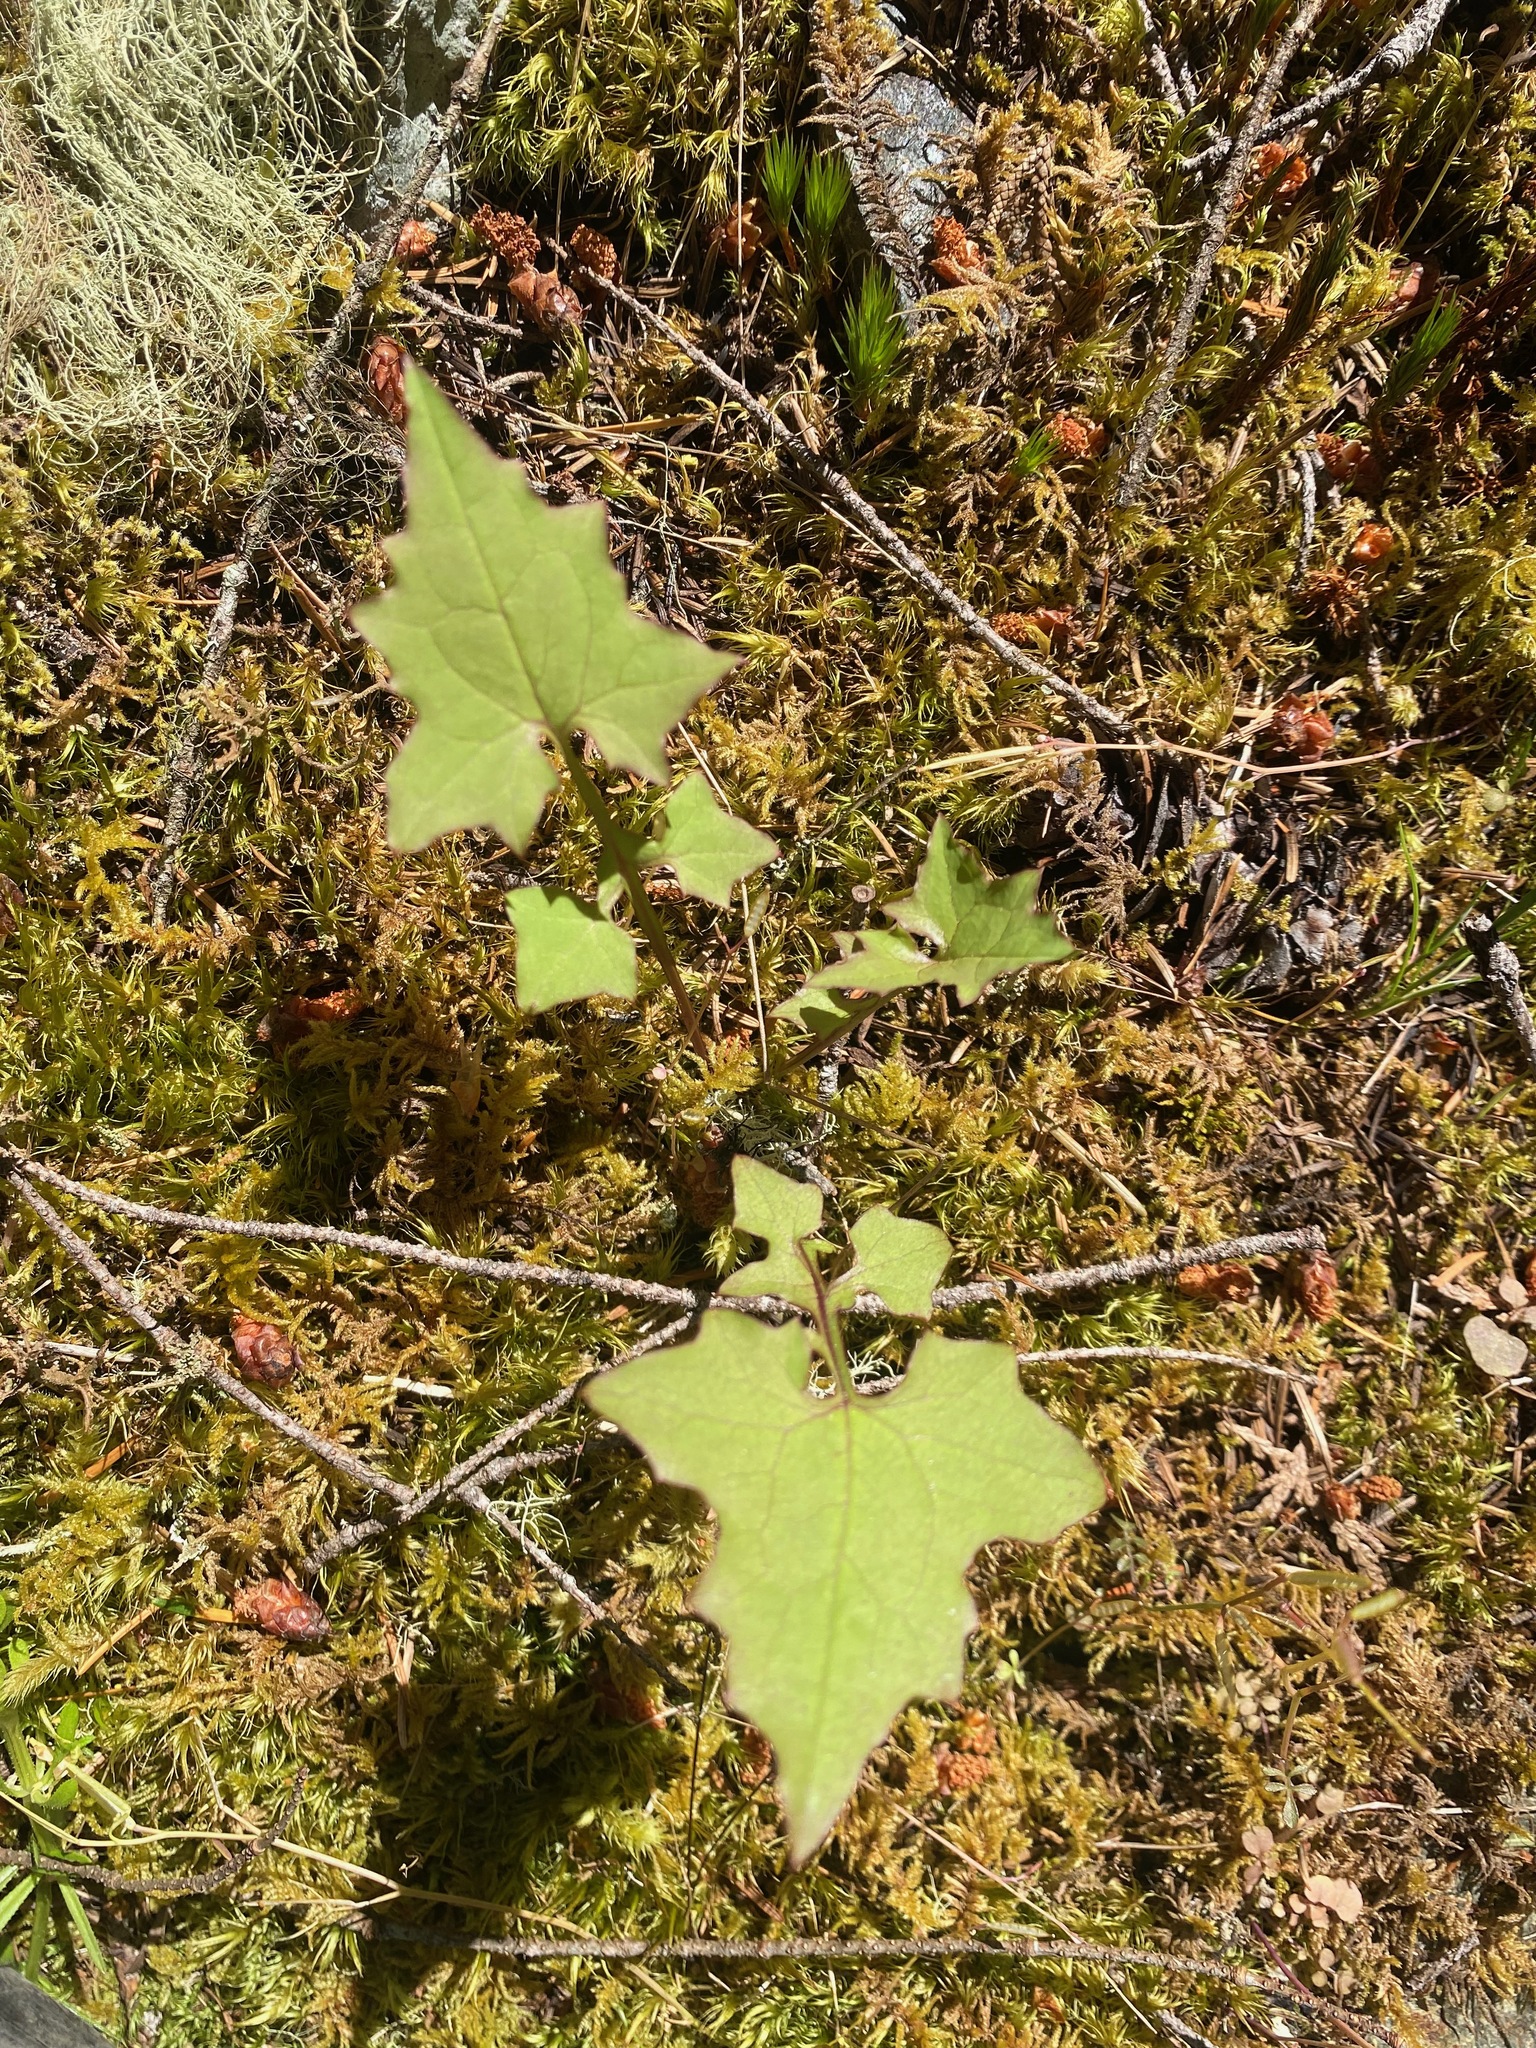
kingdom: Plantae
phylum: Tracheophyta
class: Magnoliopsida
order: Asterales
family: Asteraceae
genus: Mycelis
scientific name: Mycelis muralis
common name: Wall lettuce
